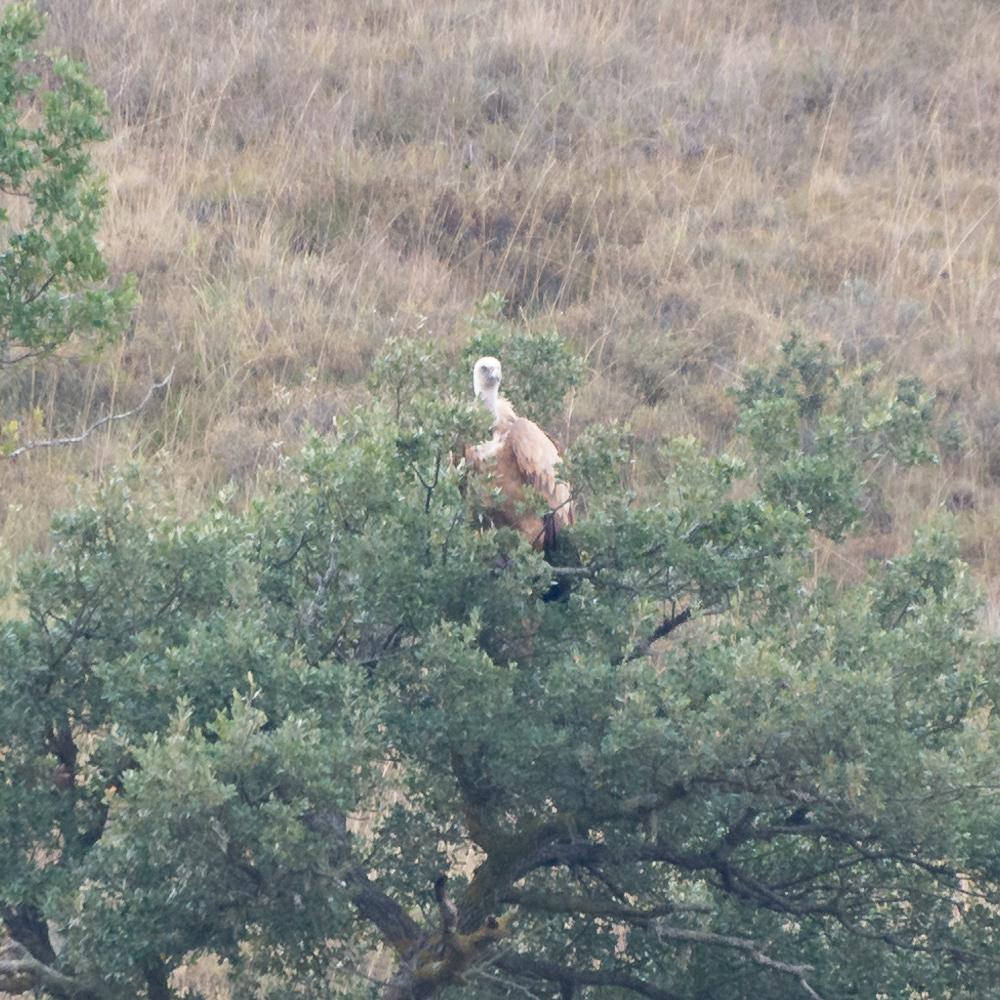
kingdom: Animalia
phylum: Chordata
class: Aves
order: Accipitriformes
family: Accipitridae
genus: Gyps
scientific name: Gyps fulvus
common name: Griffon vulture
